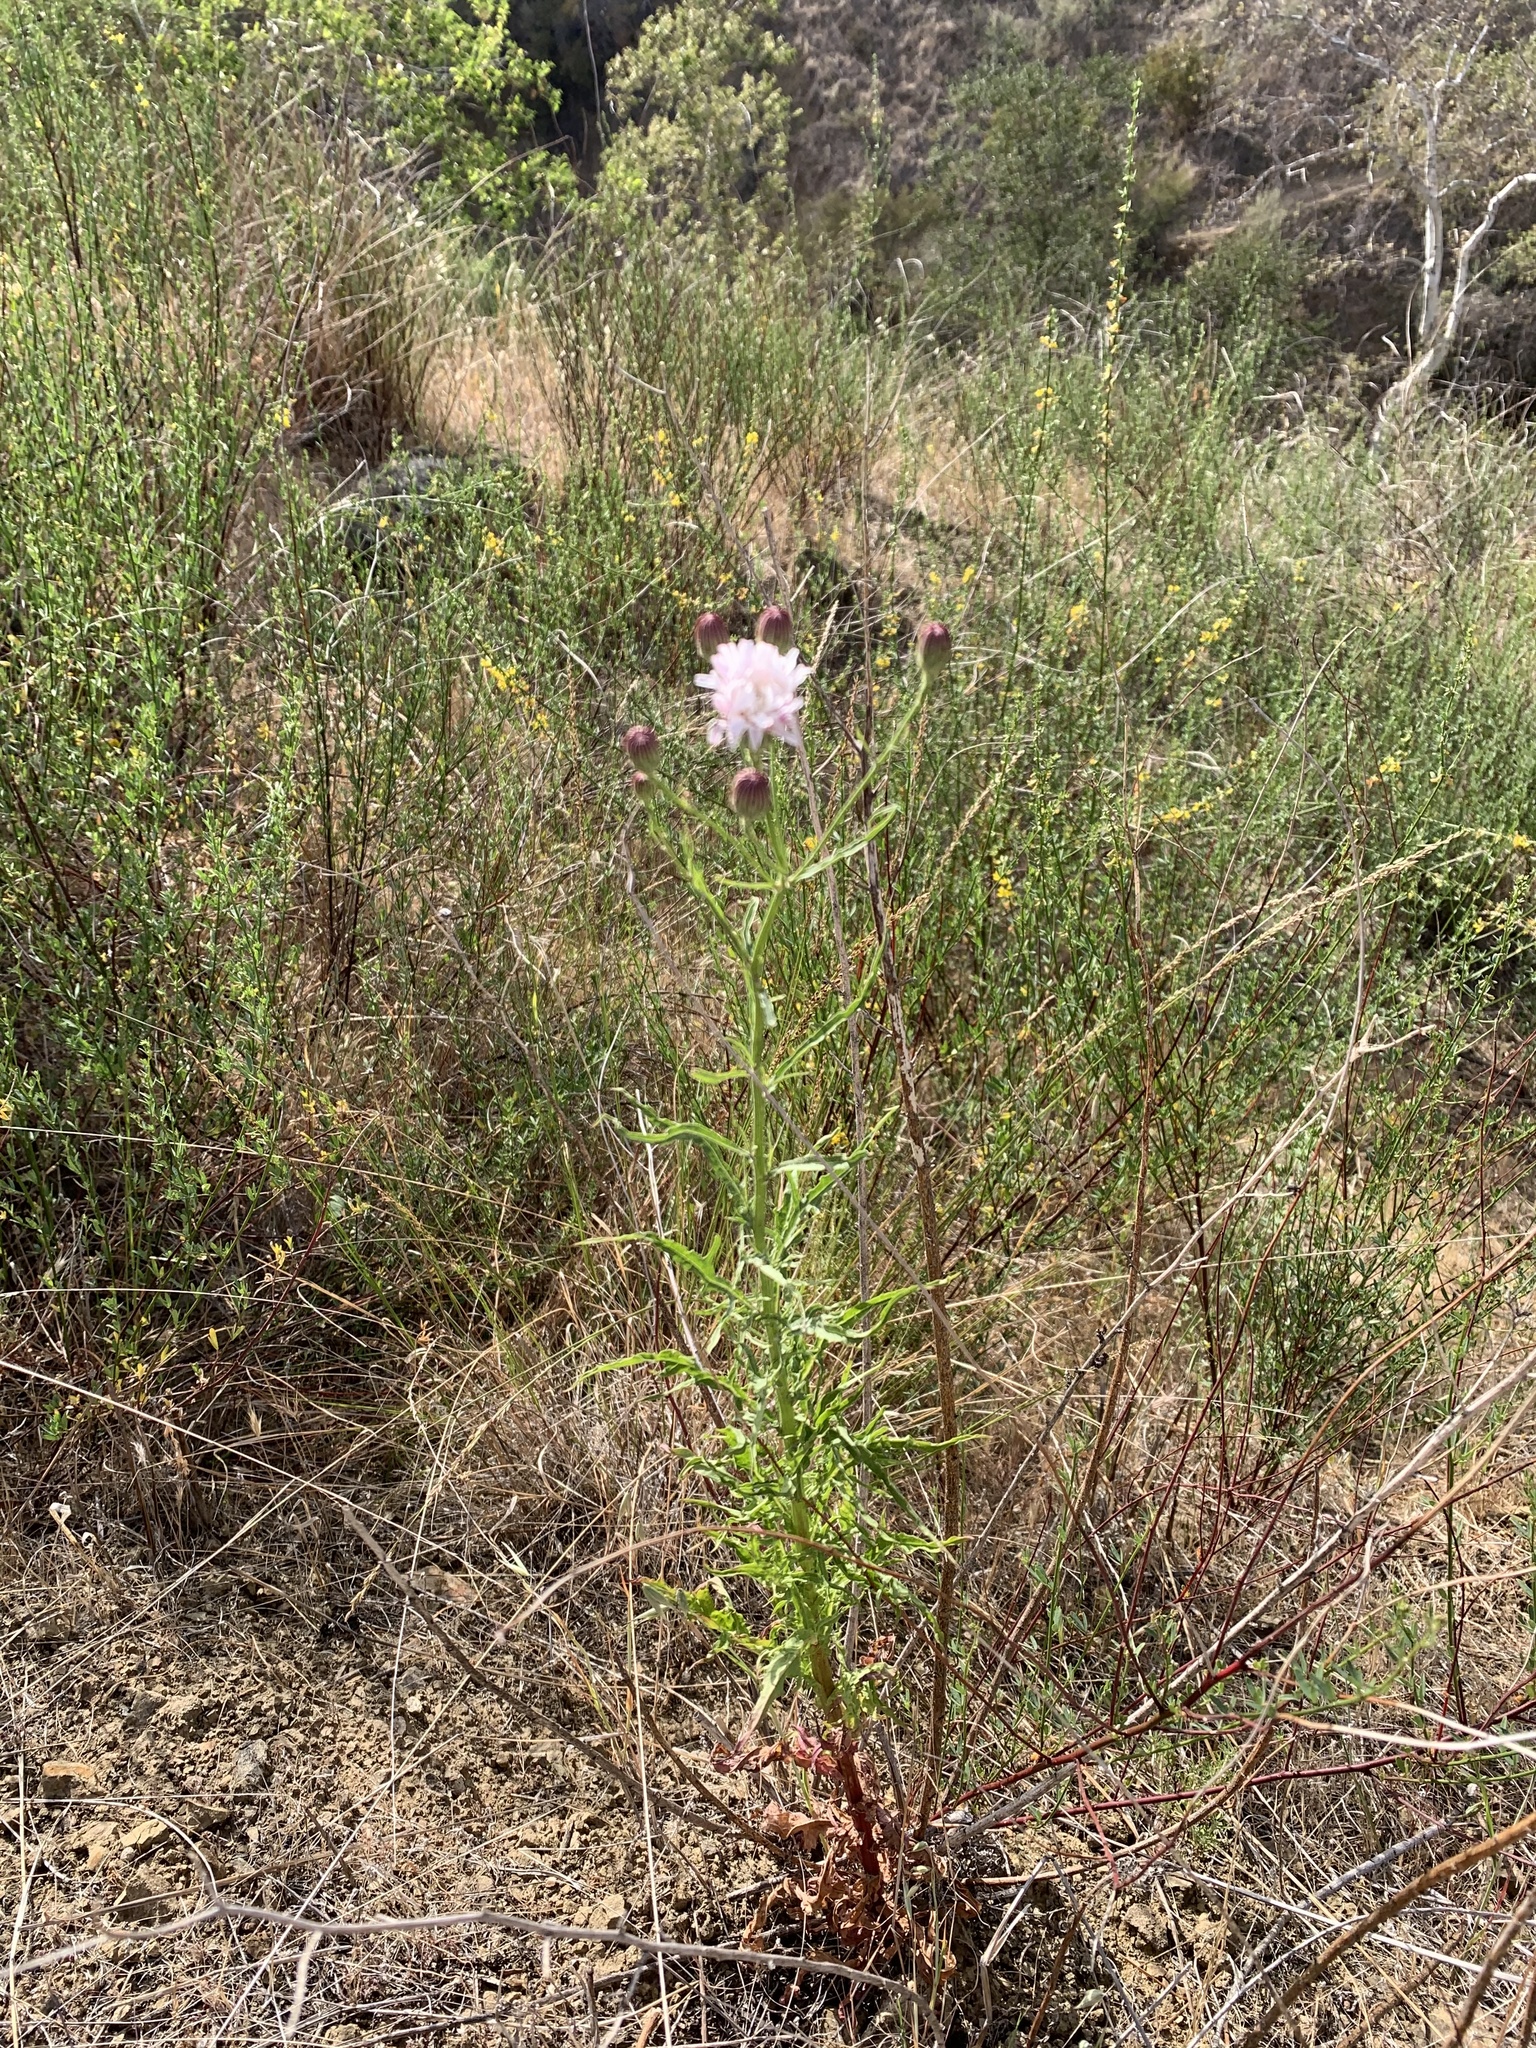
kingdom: Plantae
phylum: Tracheophyta
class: Magnoliopsida
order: Asterales
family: Asteraceae
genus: Malacothrix
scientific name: Malacothrix saxatilis
